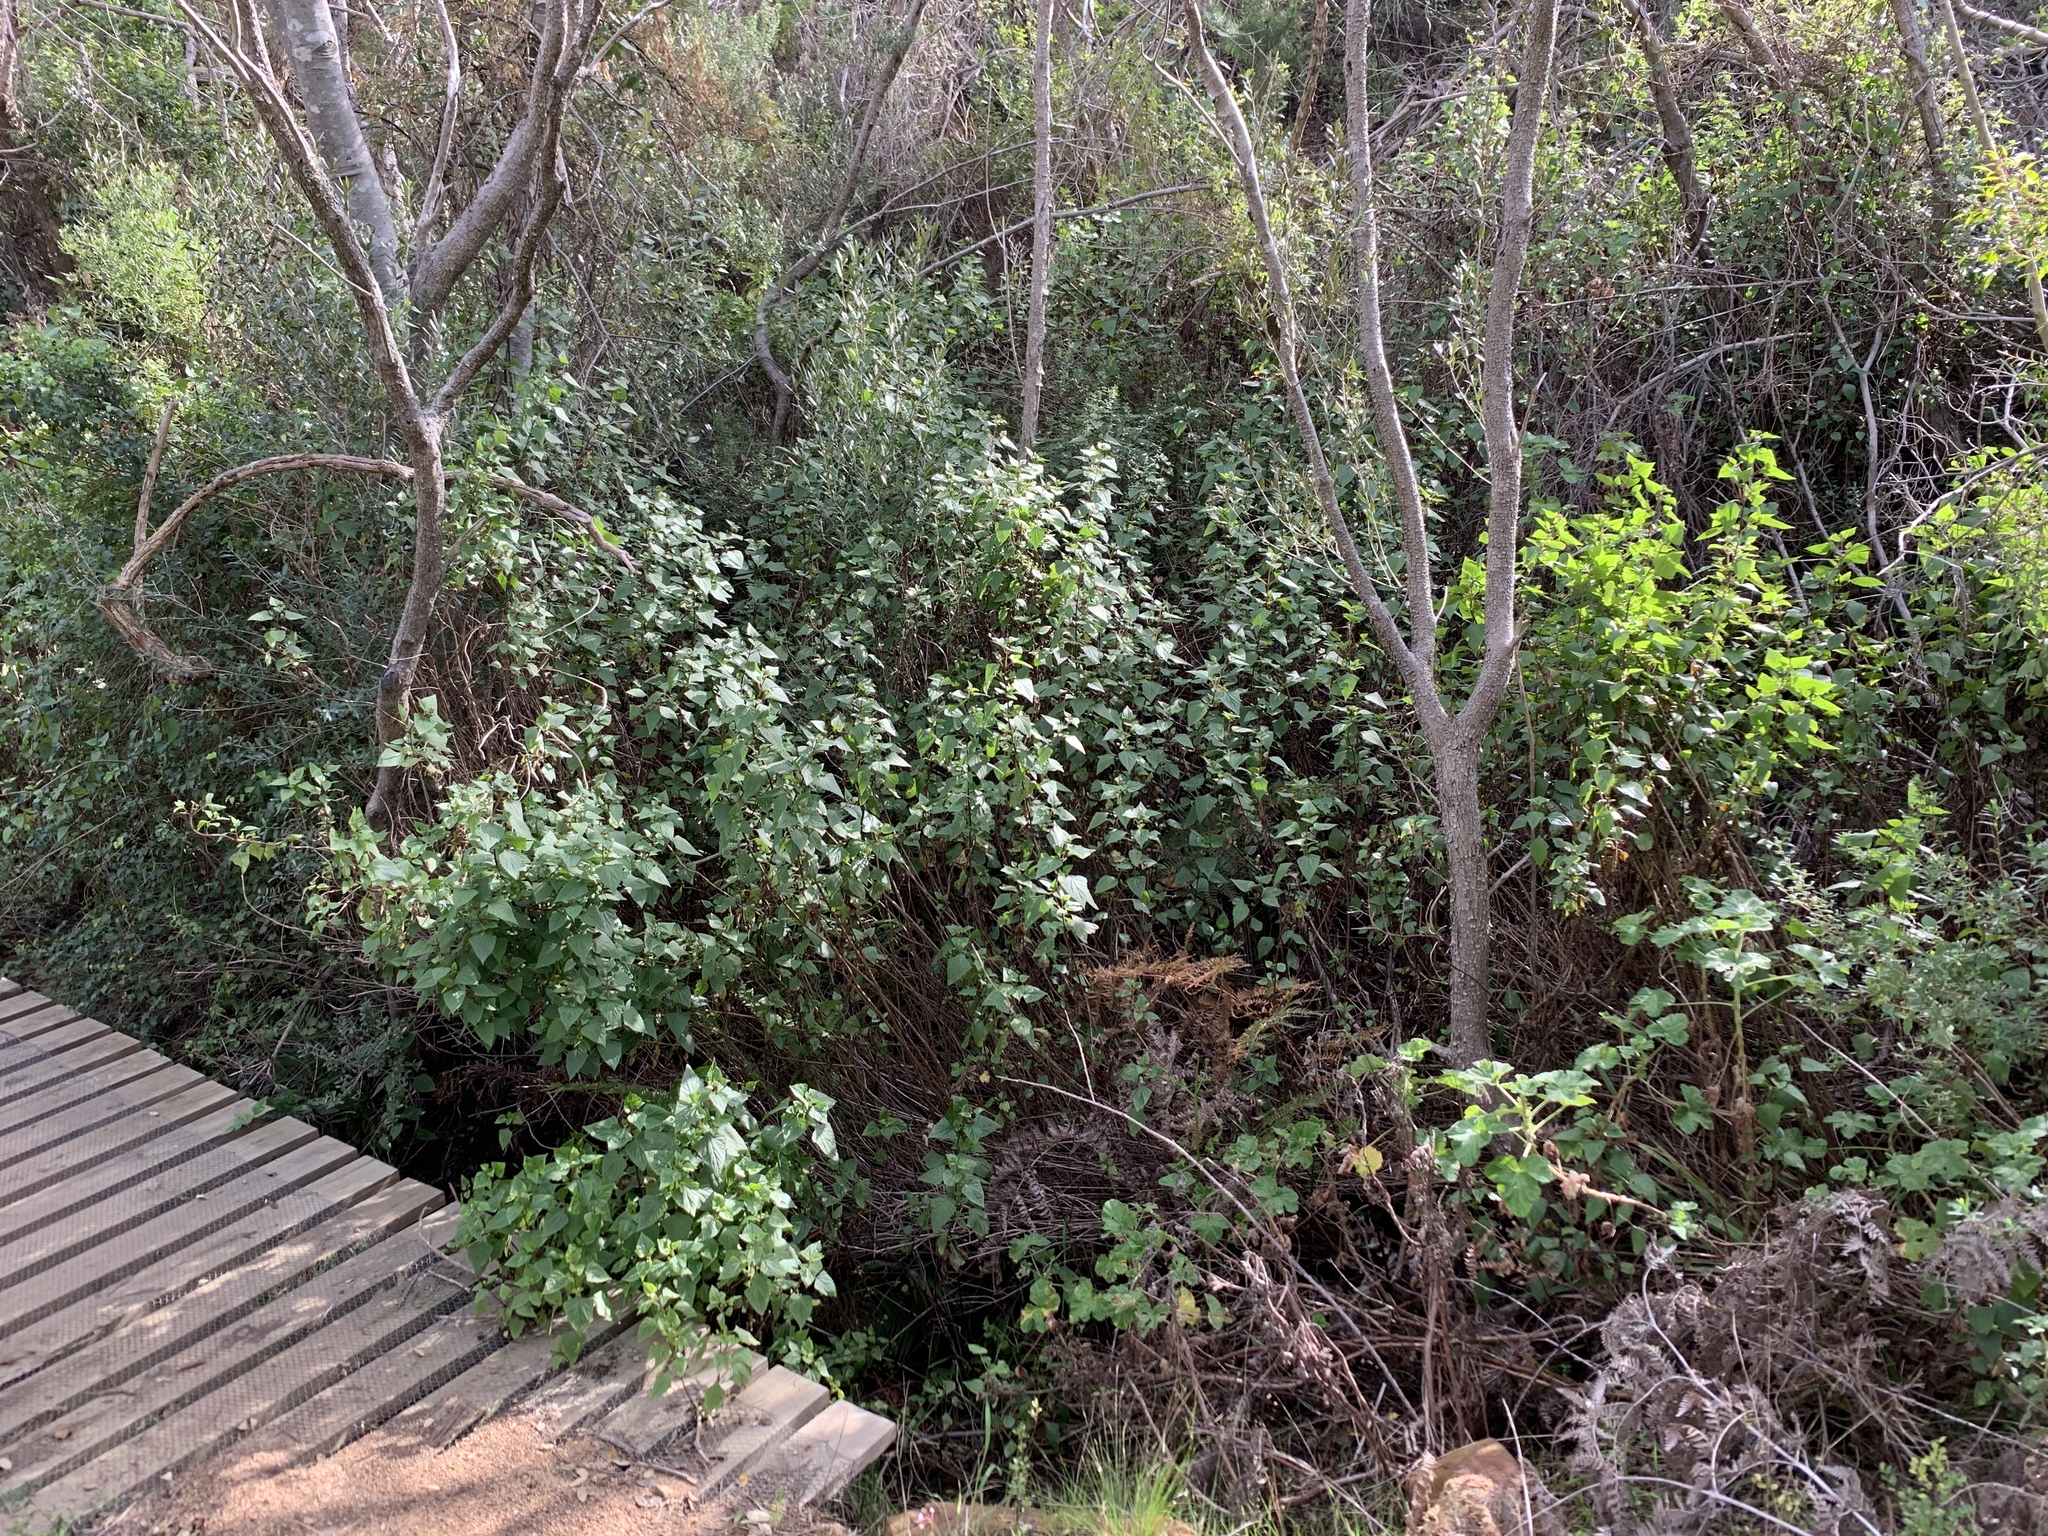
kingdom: Plantae
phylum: Tracheophyta
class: Magnoliopsida
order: Asterales
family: Asteraceae
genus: Ageratina
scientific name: Ageratina adenophora
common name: Sticky snakeroot
